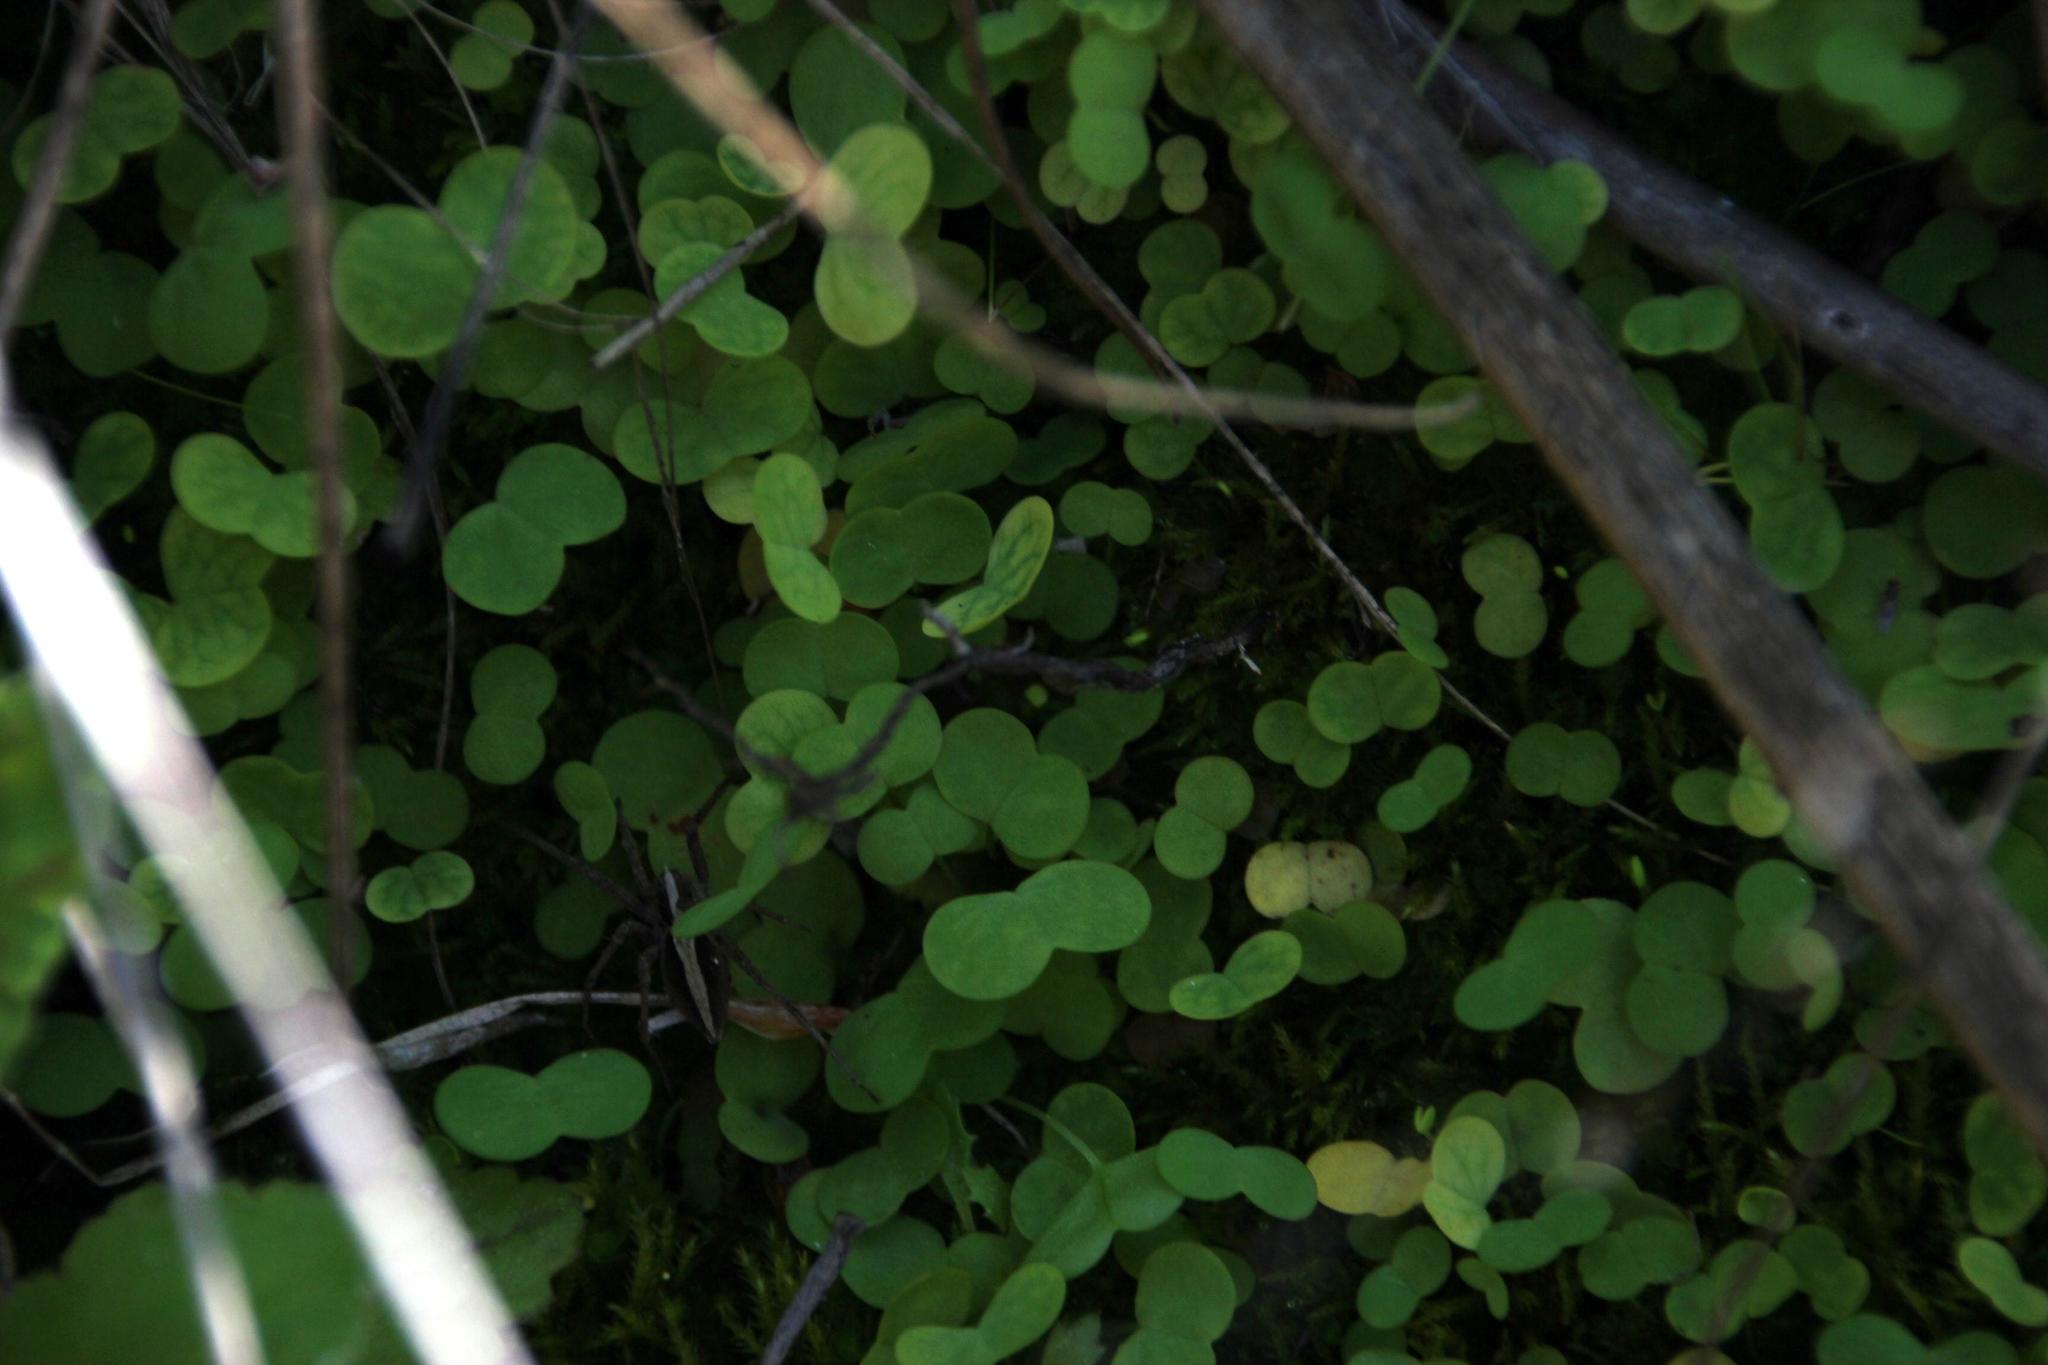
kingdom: Plantae
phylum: Tracheophyta
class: Magnoliopsida
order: Oxalidales
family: Oxalidaceae
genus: Oxalis
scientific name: Oxalis dregei
